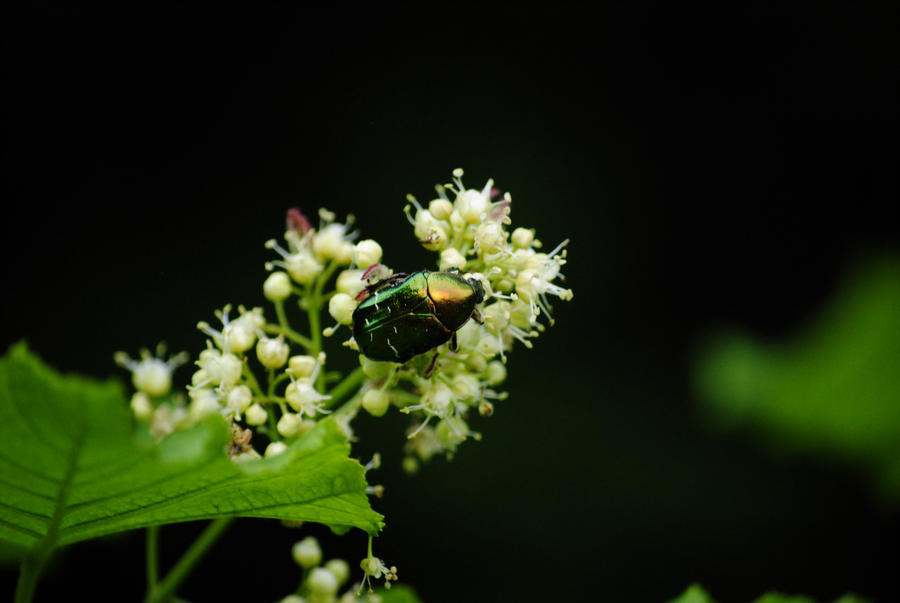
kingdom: Animalia
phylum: Arthropoda
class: Insecta
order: Coleoptera
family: Scarabaeidae
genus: Cetonia
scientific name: Cetonia aurata
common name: Rose chafer
